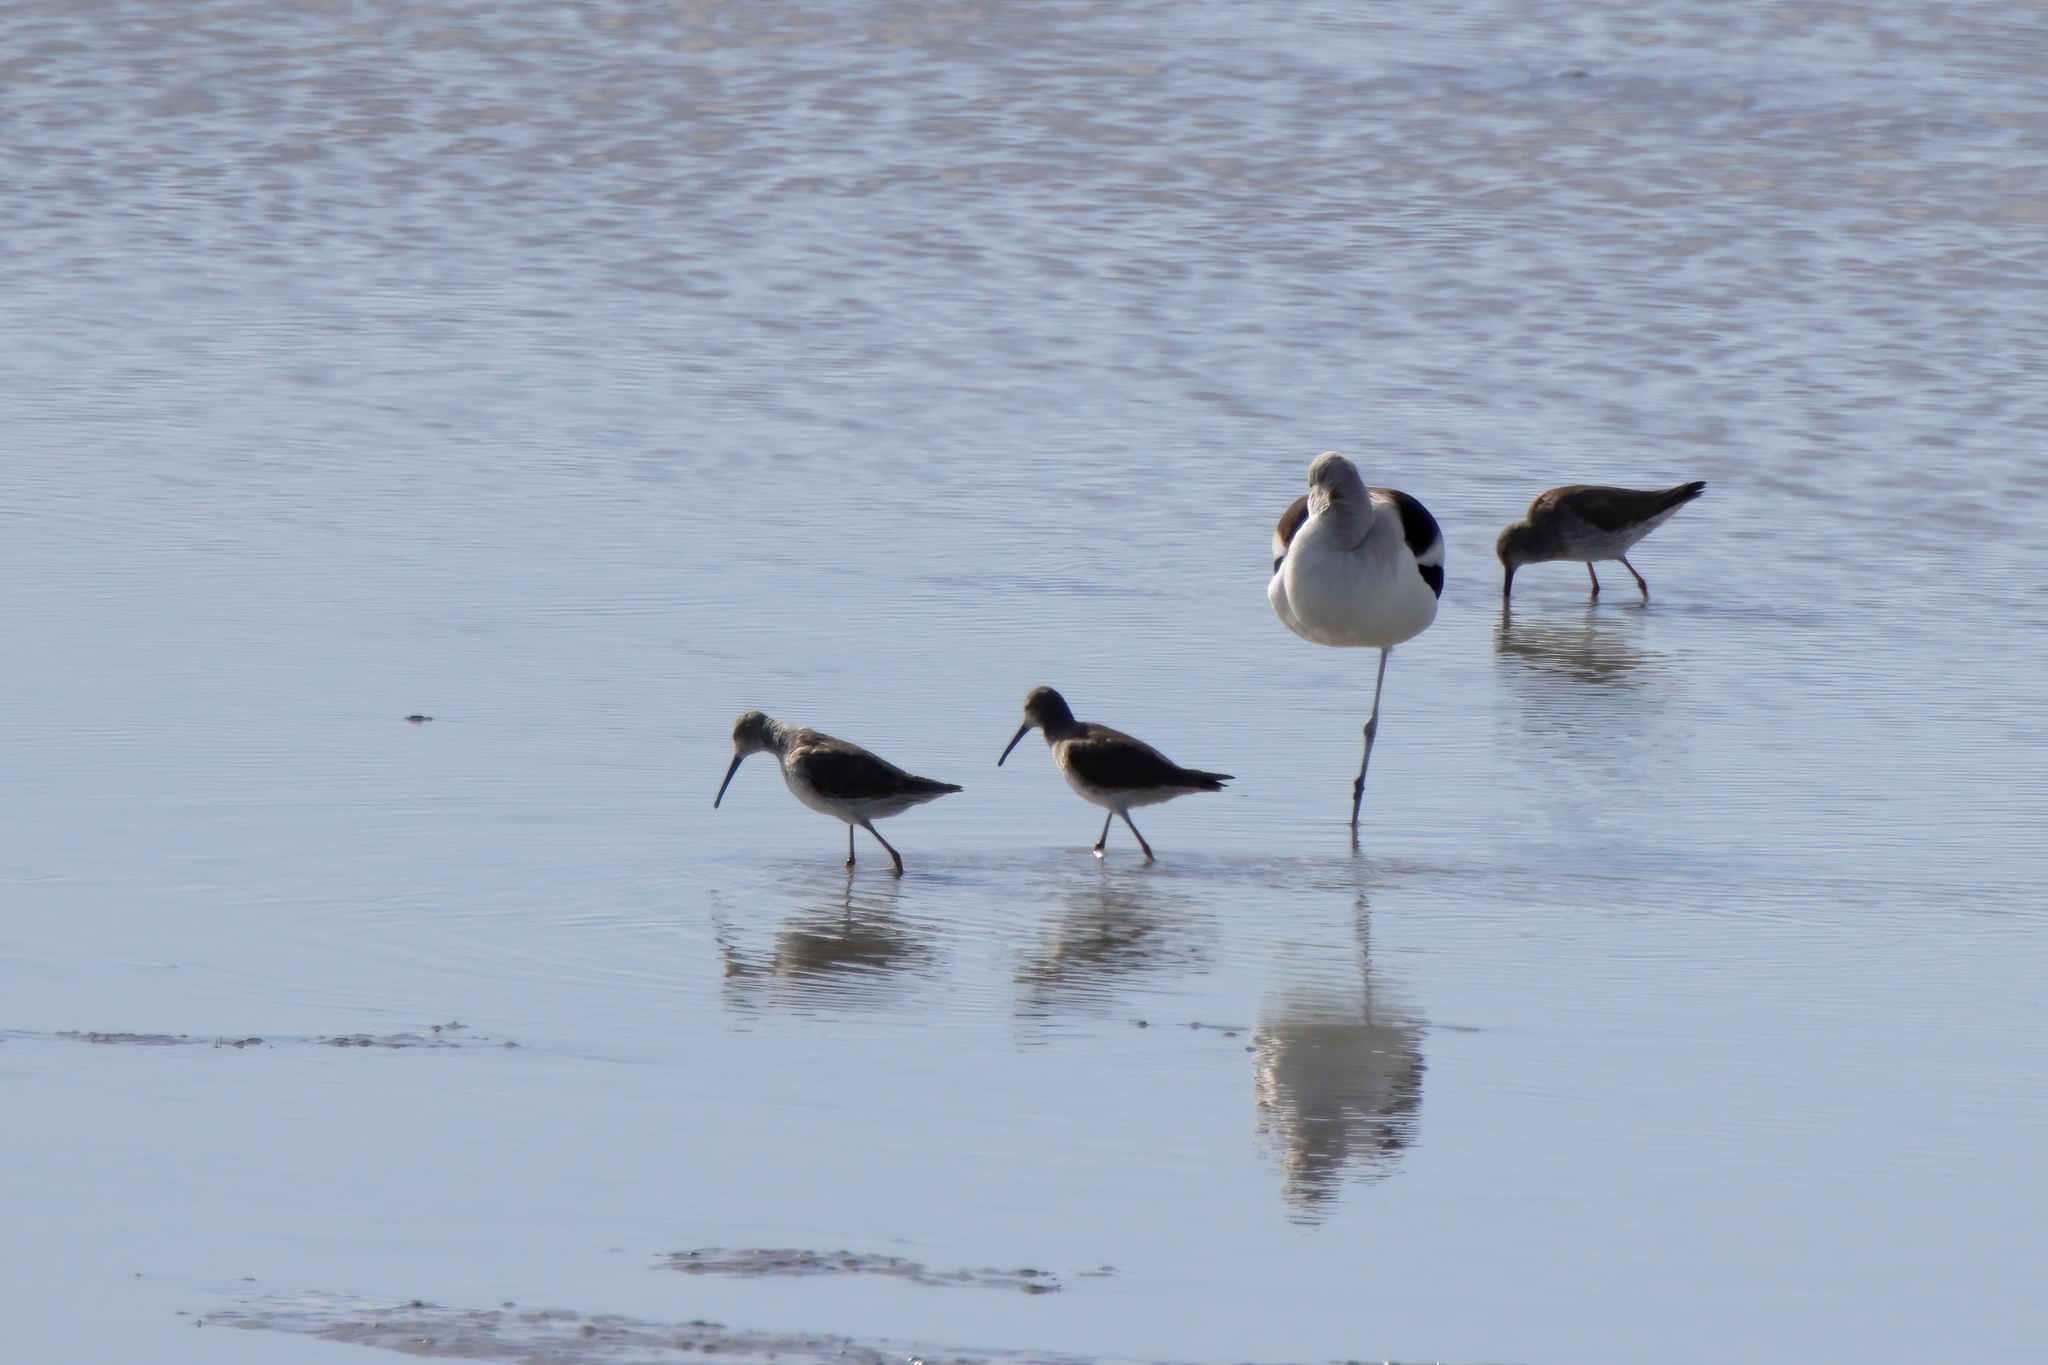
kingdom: Animalia
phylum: Chordata
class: Aves
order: Charadriiformes
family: Scolopacidae
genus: Calidris
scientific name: Calidris himantopus
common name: Stilt sandpiper
